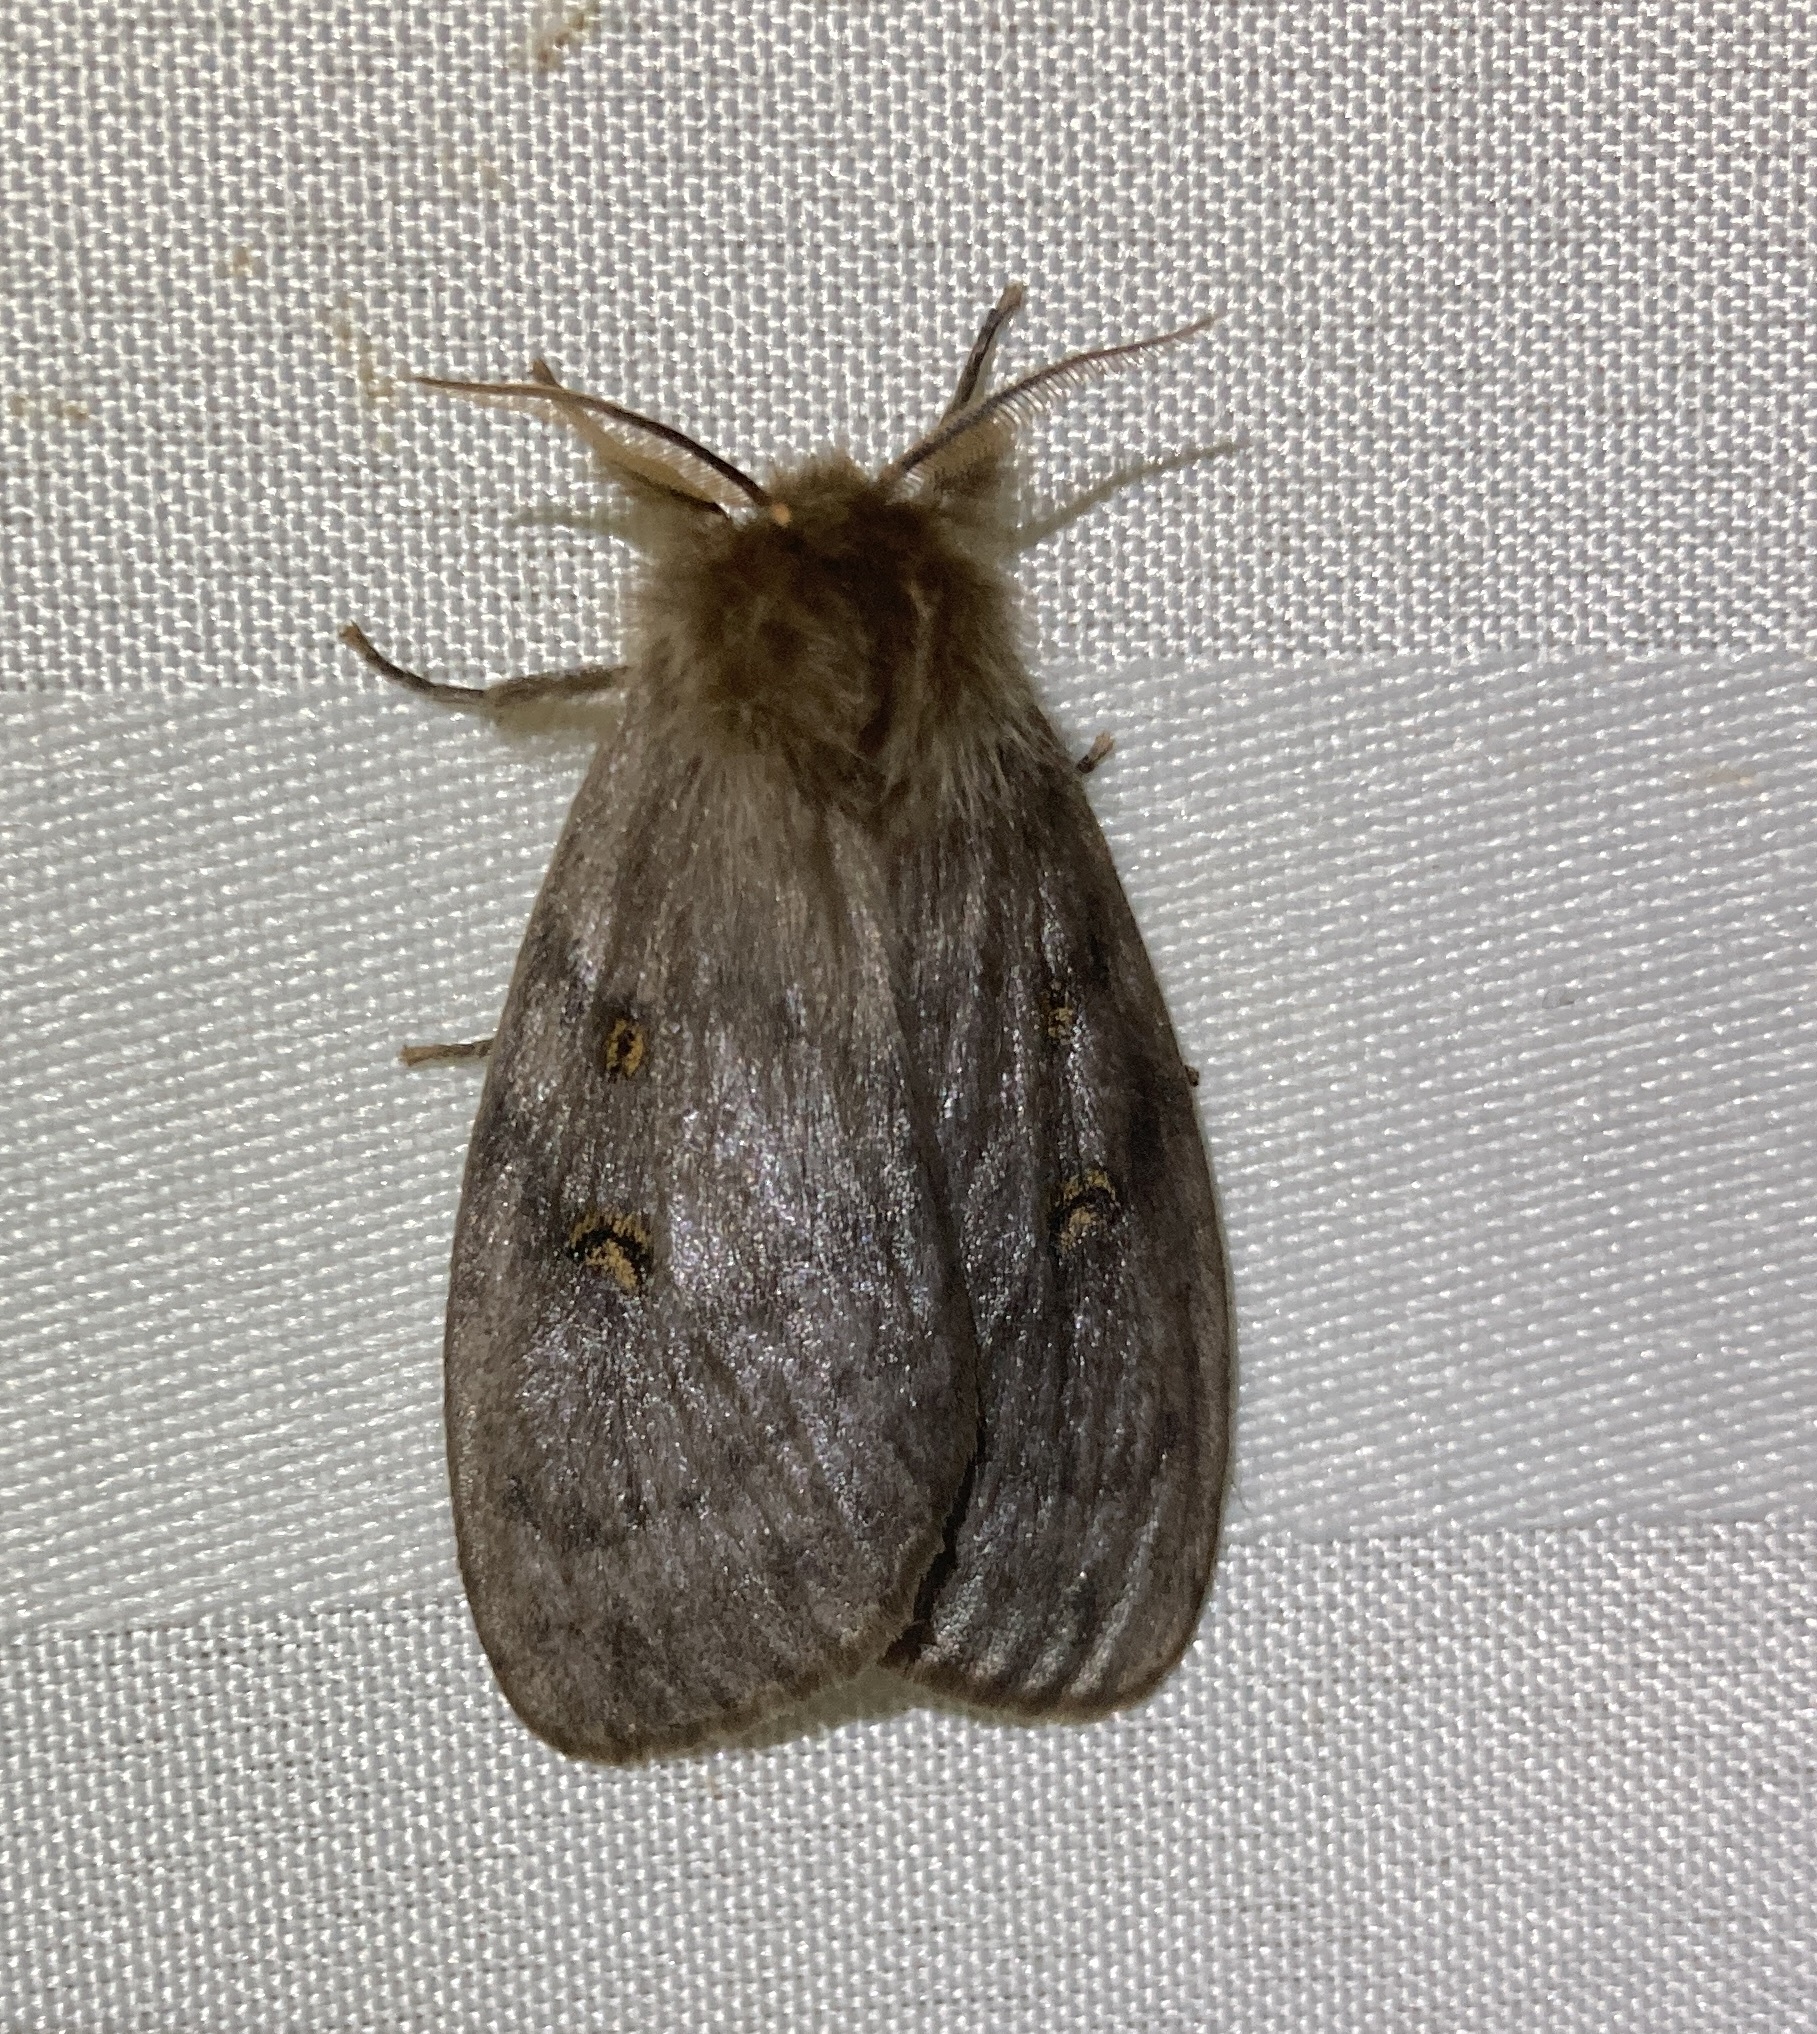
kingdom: Animalia
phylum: Arthropoda
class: Insecta
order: Lepidoptera
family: Erebidae
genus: Leptocneria
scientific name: Leptocneria reducta
